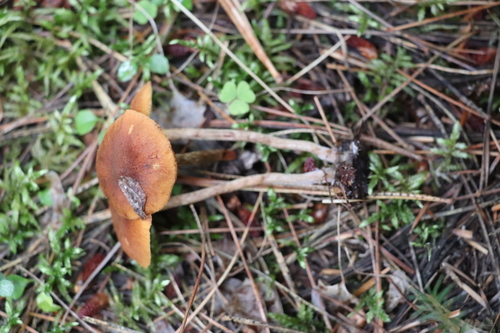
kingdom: Fungi
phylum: Basidiomycota
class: Agaricomycetes
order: Agaricales
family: Hymenogastraceae
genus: Gymnopilus
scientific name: Gymnopilus penetrans
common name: Common rustgill
